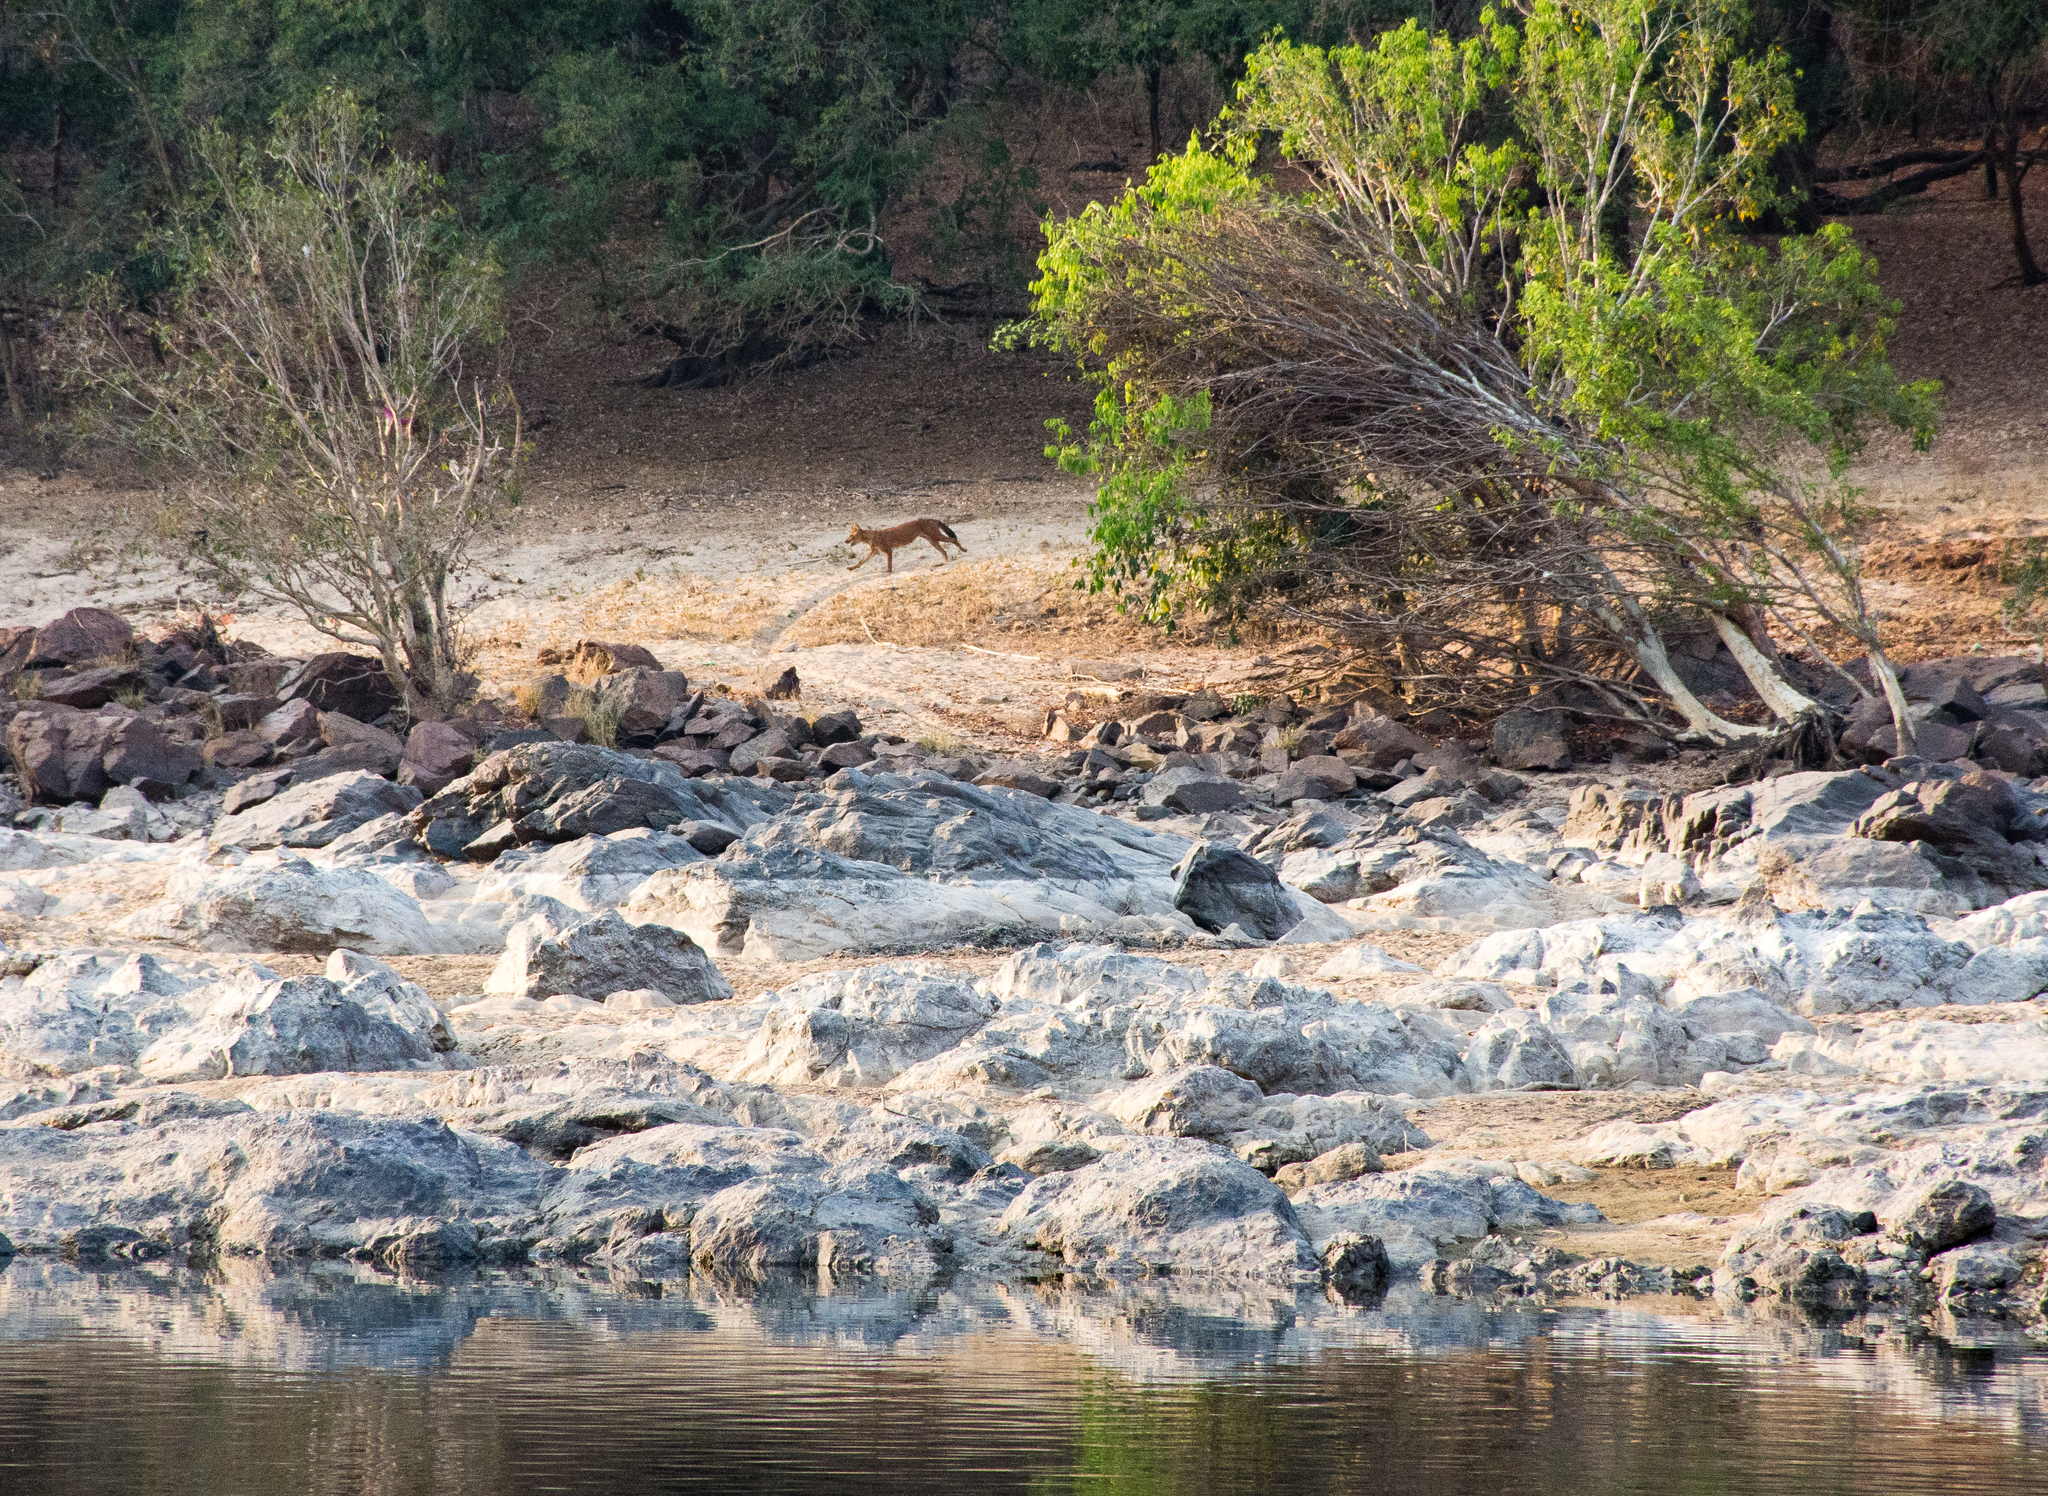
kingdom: Animalia
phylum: Chordata
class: Mammalia
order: Carnivora
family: Canidae
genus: Cuon
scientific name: Cuon alpinus
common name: Dhole
